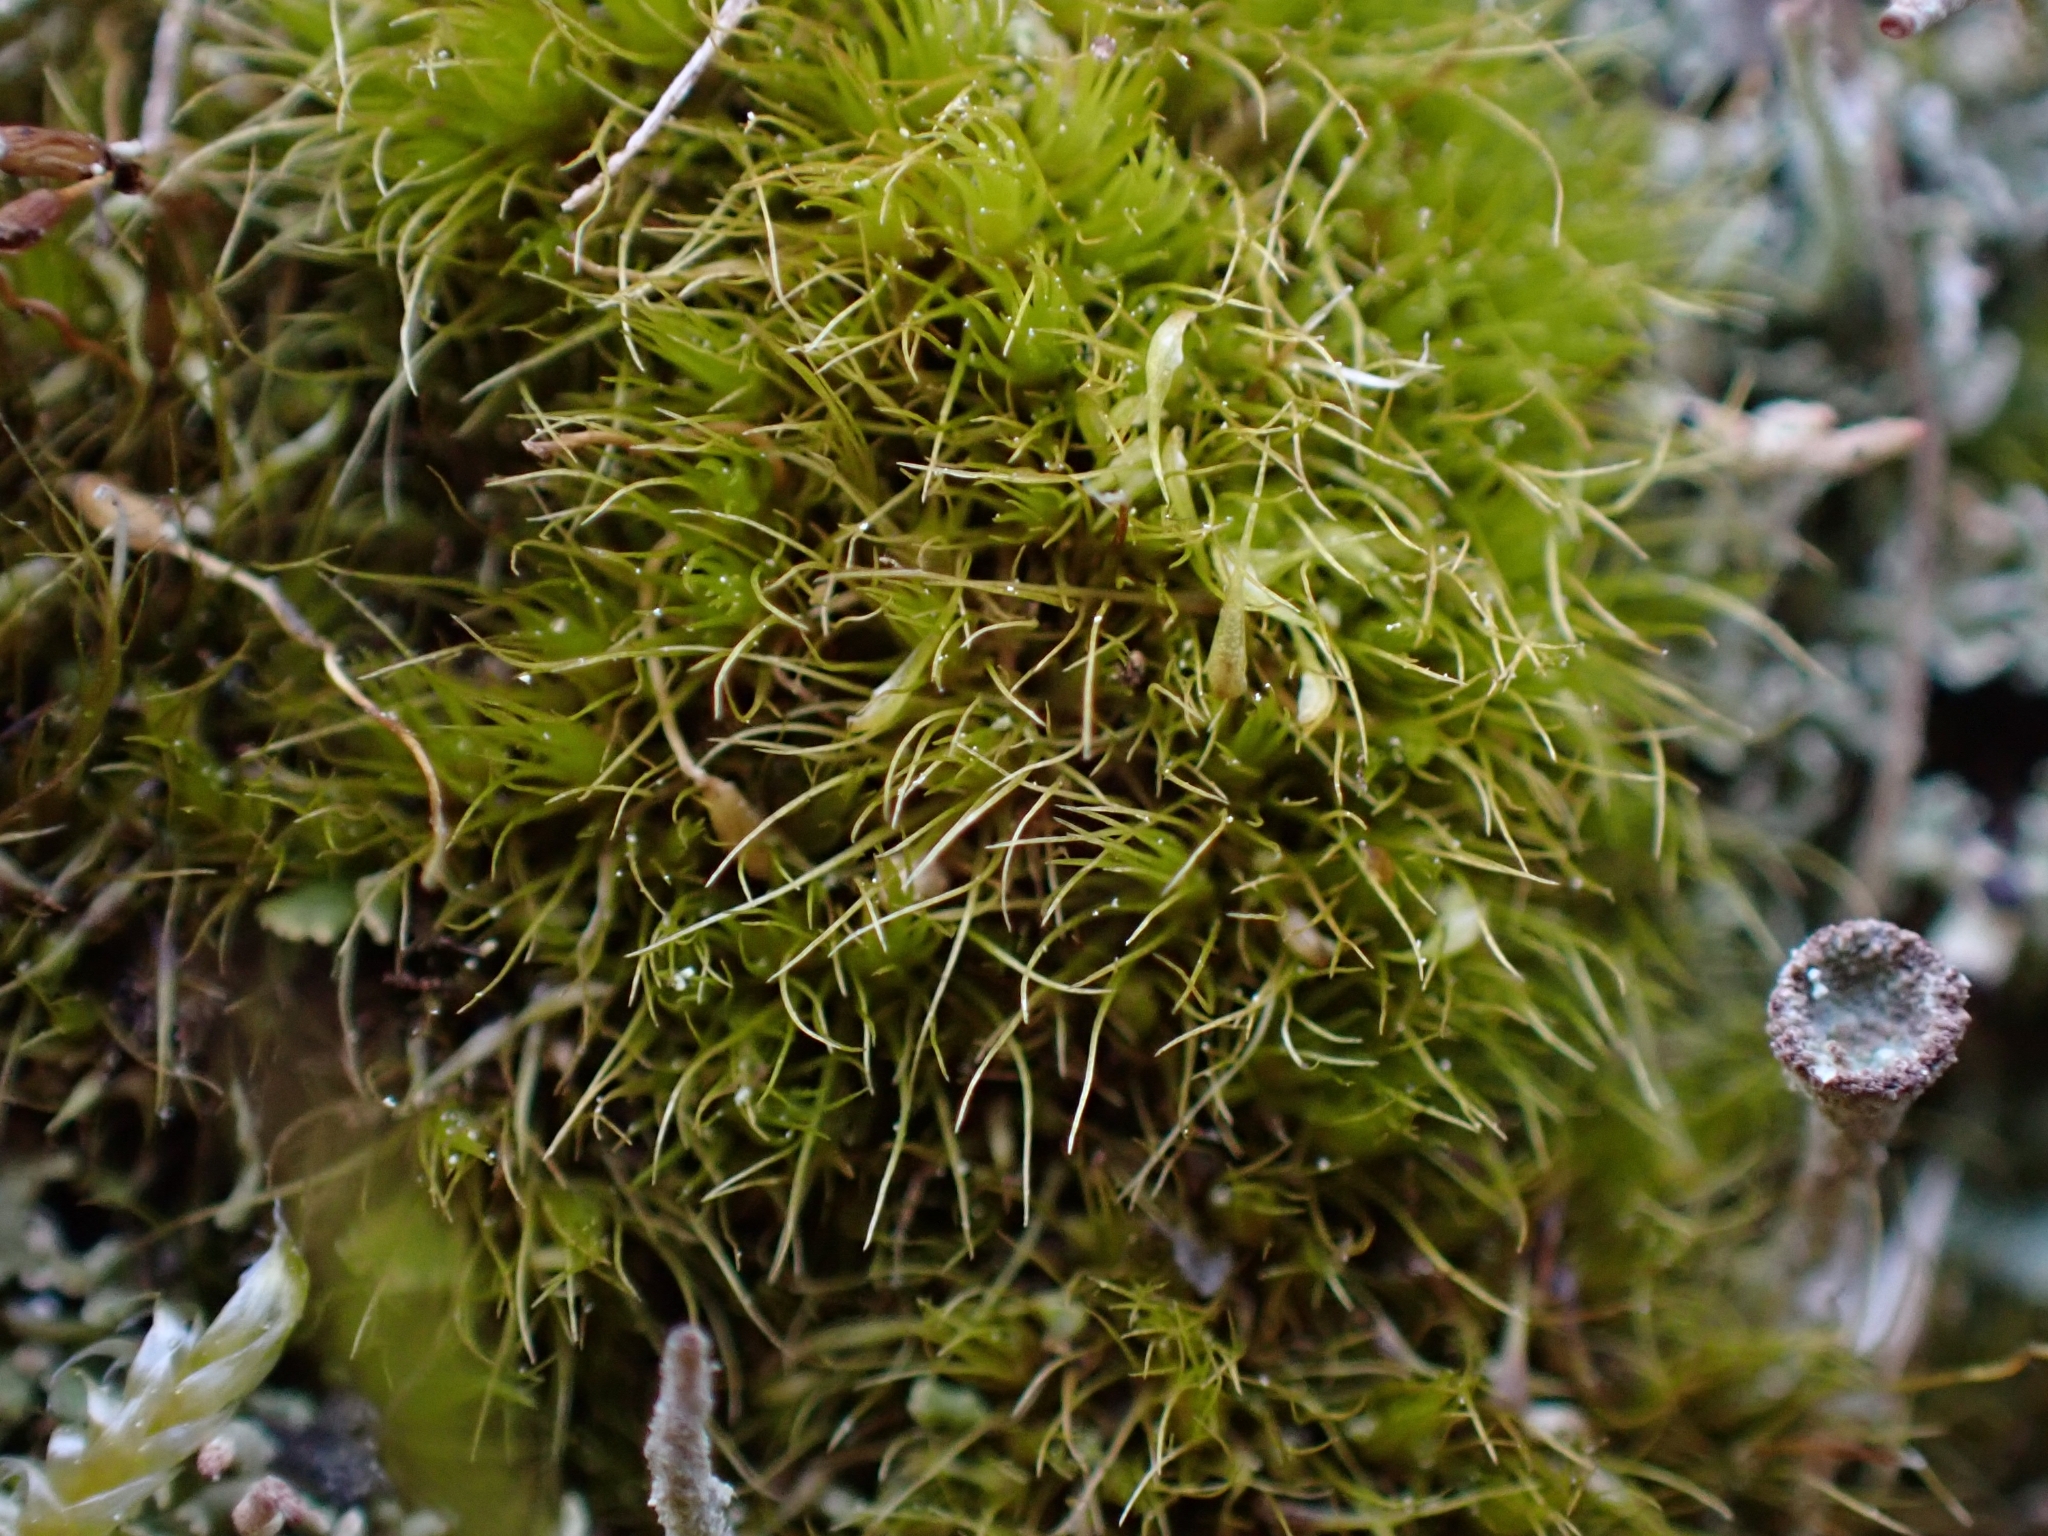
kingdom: Plantae
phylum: Bryophyta
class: Bryopsida
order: Dicranales
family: Leucobryaceae
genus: Campylopus
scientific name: Campylopus pyriformis
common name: Dwarf swan-neck moss
